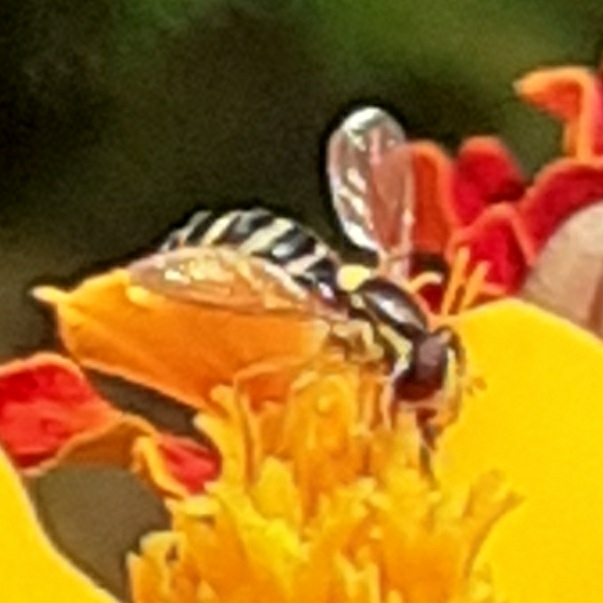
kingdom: Animalia
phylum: Arthropoda
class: Insecta
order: Diptera
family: Syrphidae
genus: Sphaerophoria
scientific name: Sphaerophoria
